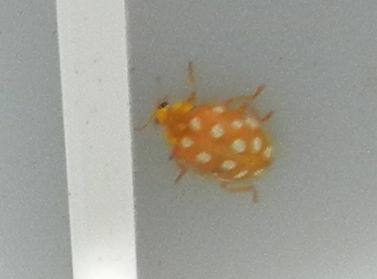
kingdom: Animalia
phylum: Arthropoda
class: Insecta
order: Coleoptera
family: Coccinellidae
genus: Halyzia
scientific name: Halyzia sedecimguttata
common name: Orange ladybird
